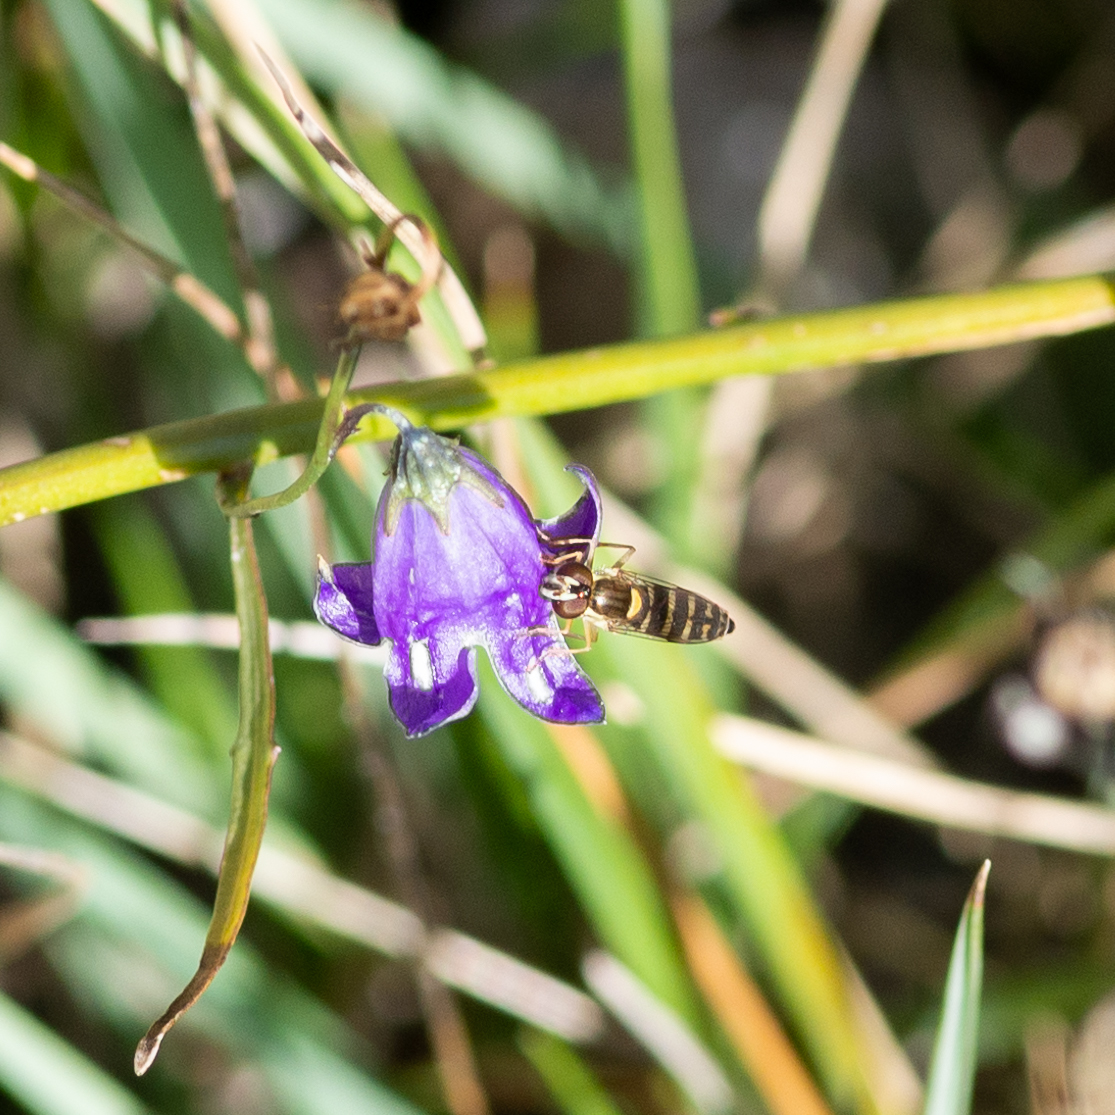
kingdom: Animalia
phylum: Arthropoda
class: Insecta
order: Diptera
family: Syrphidae
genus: Sphaerophoria
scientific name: Sphaerophoria
